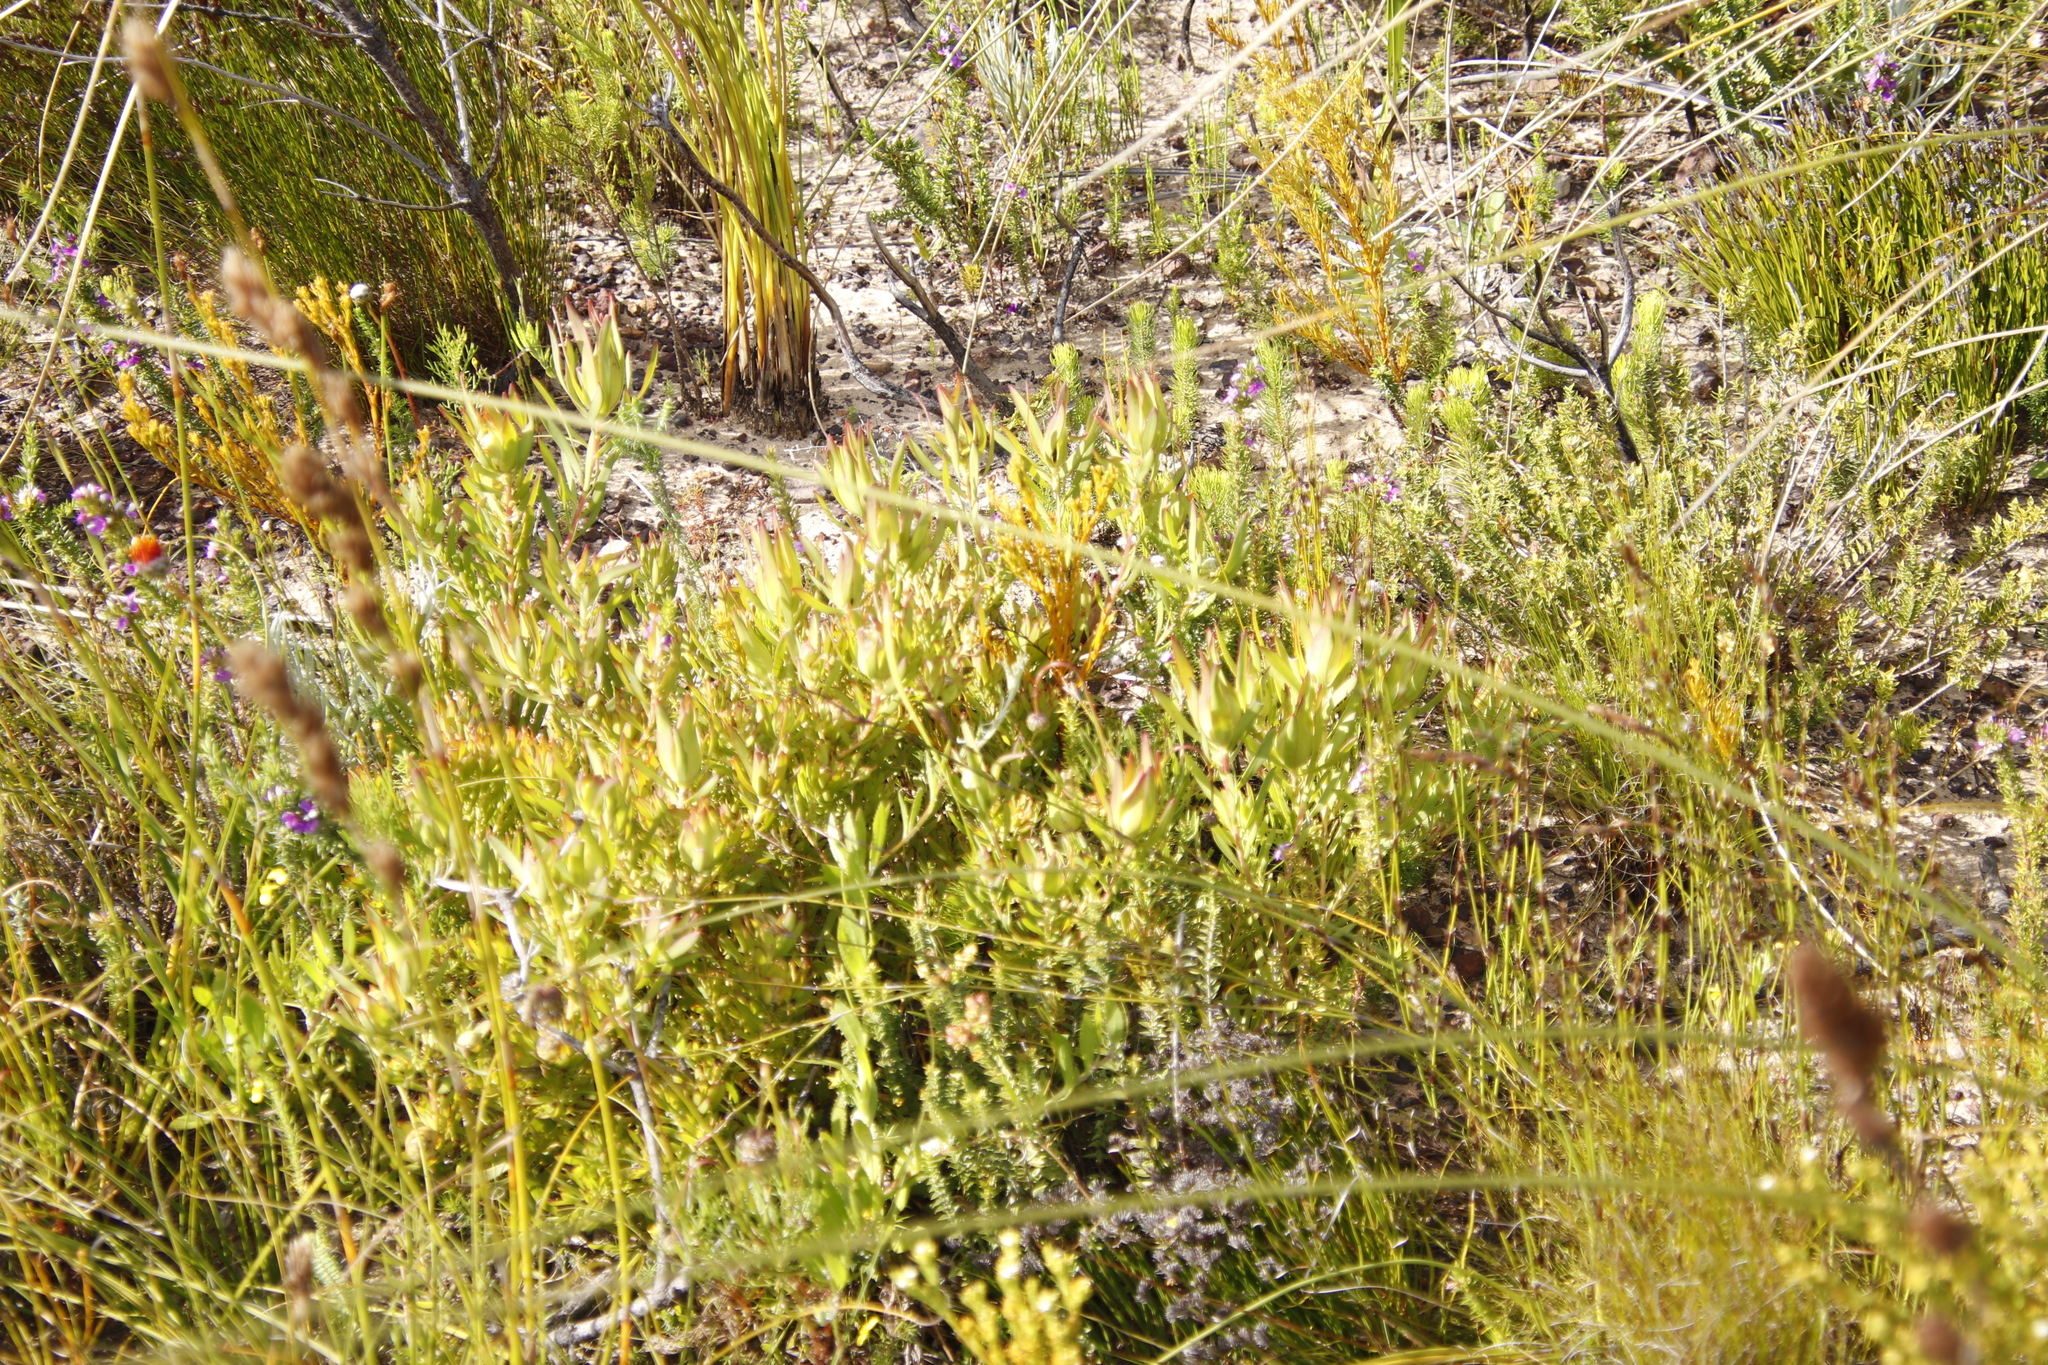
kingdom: Plantae
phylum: Tracheophyta
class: Magnoliopsida
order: Proteales
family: Proteaceae
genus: Leucadendron
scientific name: Leucadendron salignum
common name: Common sunshine conebush
